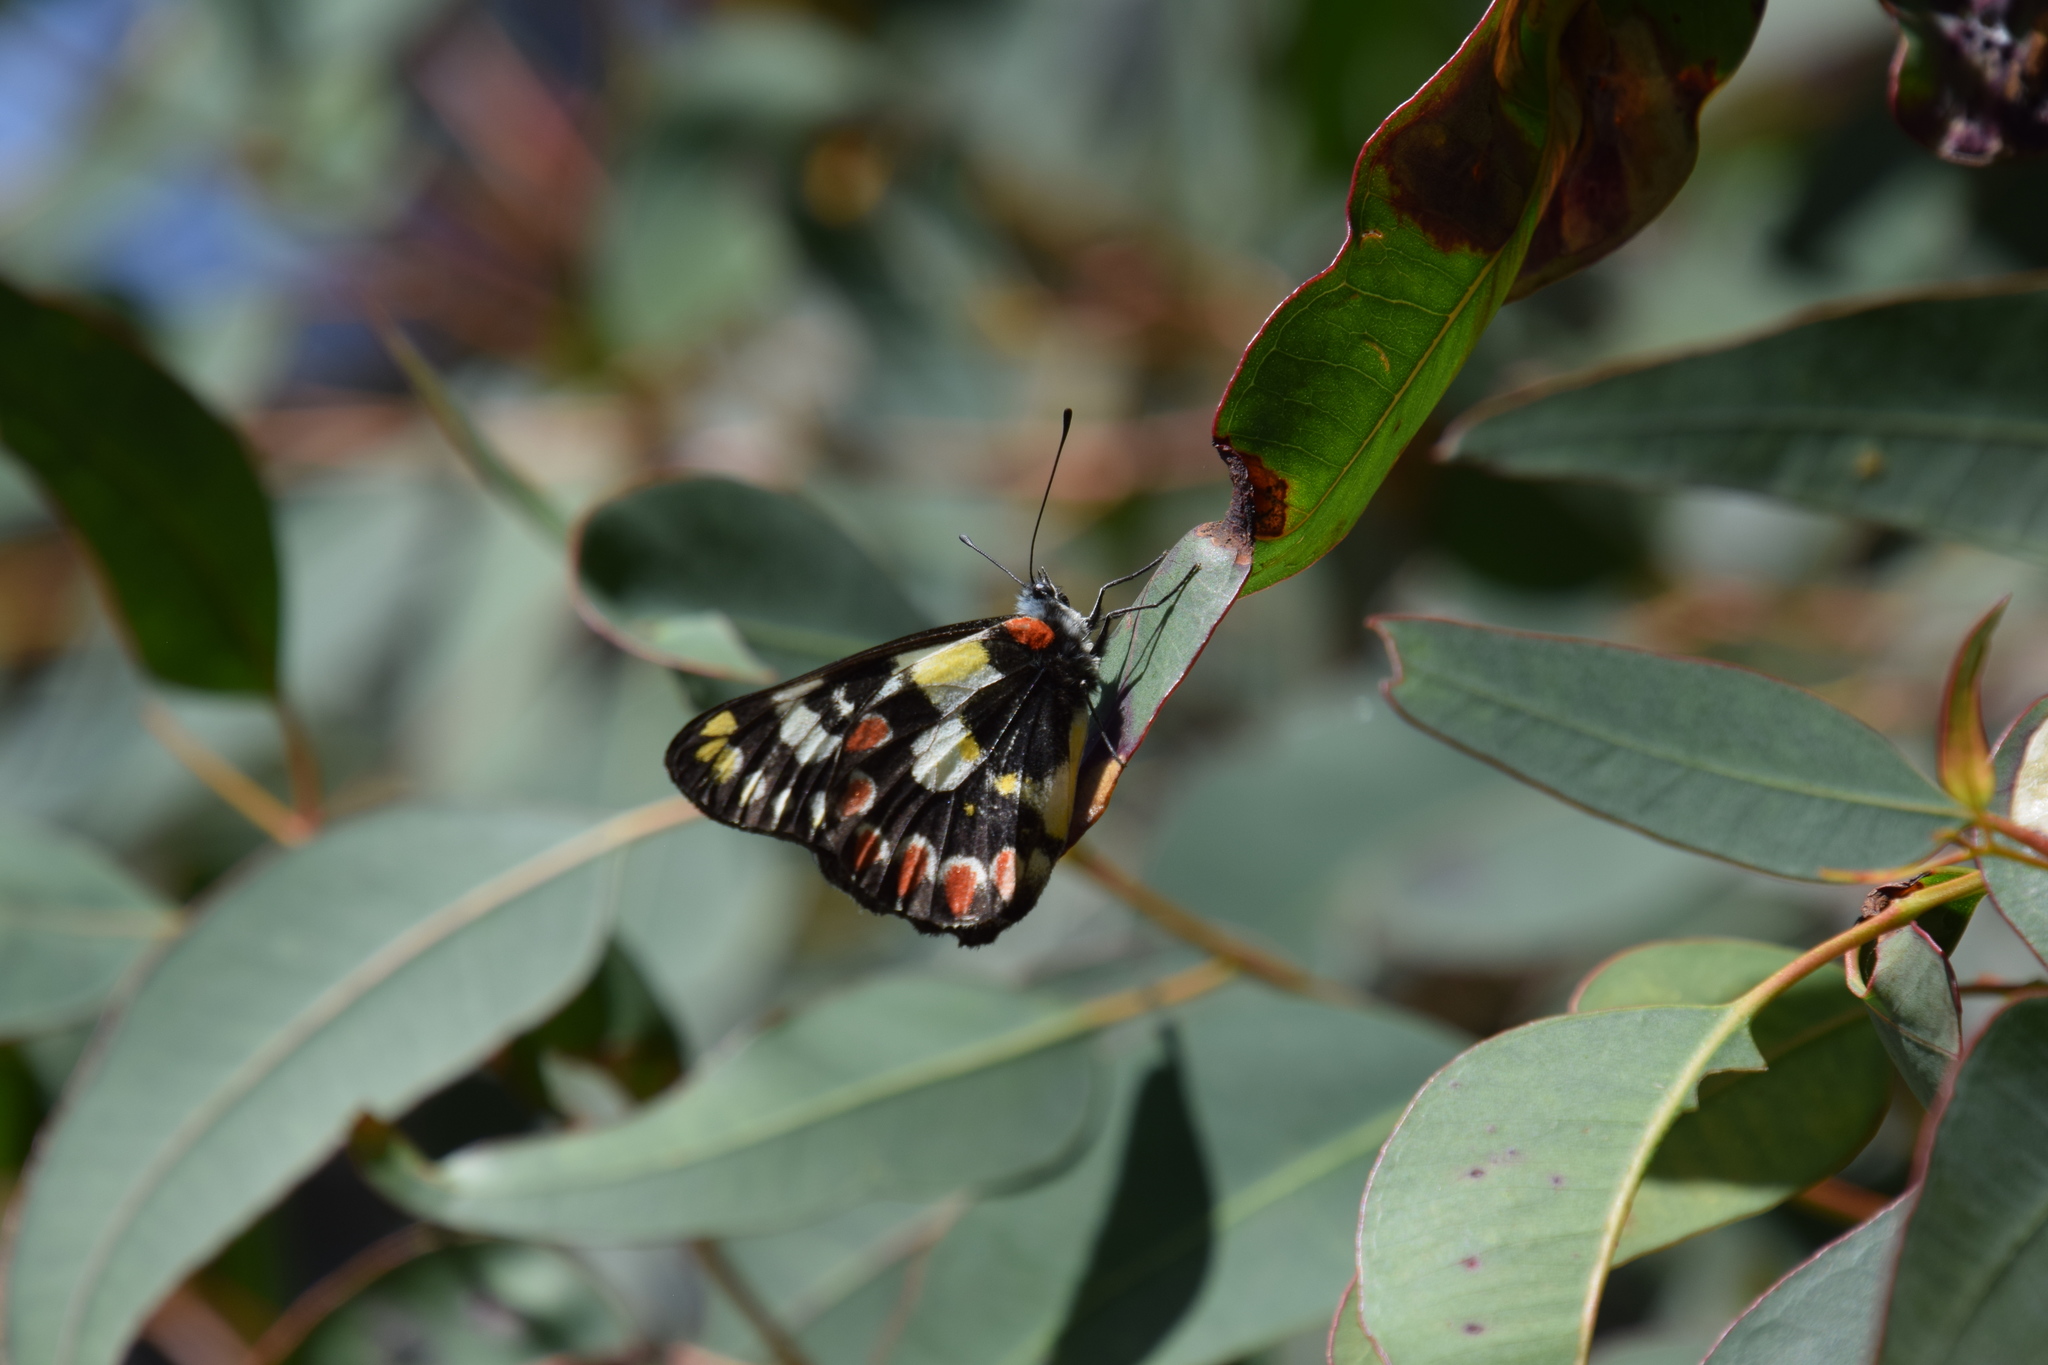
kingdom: Animalia
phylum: Arthropoda
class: Insecta
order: Lepidoptera
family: Pieridae
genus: Delias
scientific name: Delias aganippe
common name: Red-spotted jezebel
